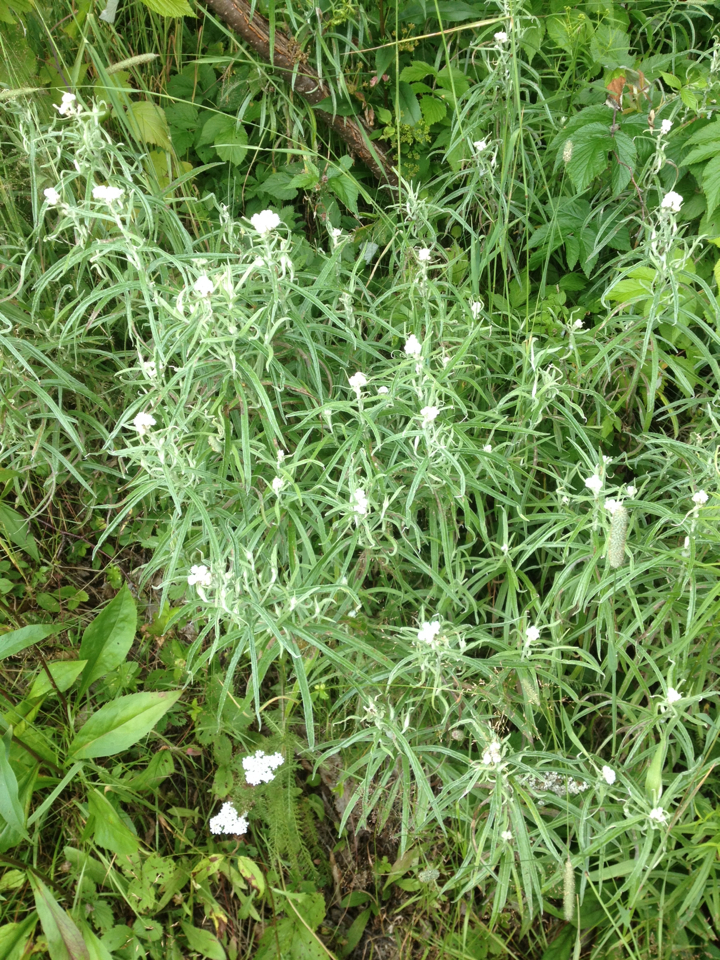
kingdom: Plantae
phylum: Tracheophyta
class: Magnoliopsida
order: Asterales
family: Asteraceae
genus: Anaphalis
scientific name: Anaphalis margaritacea
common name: Pearly everlasting
